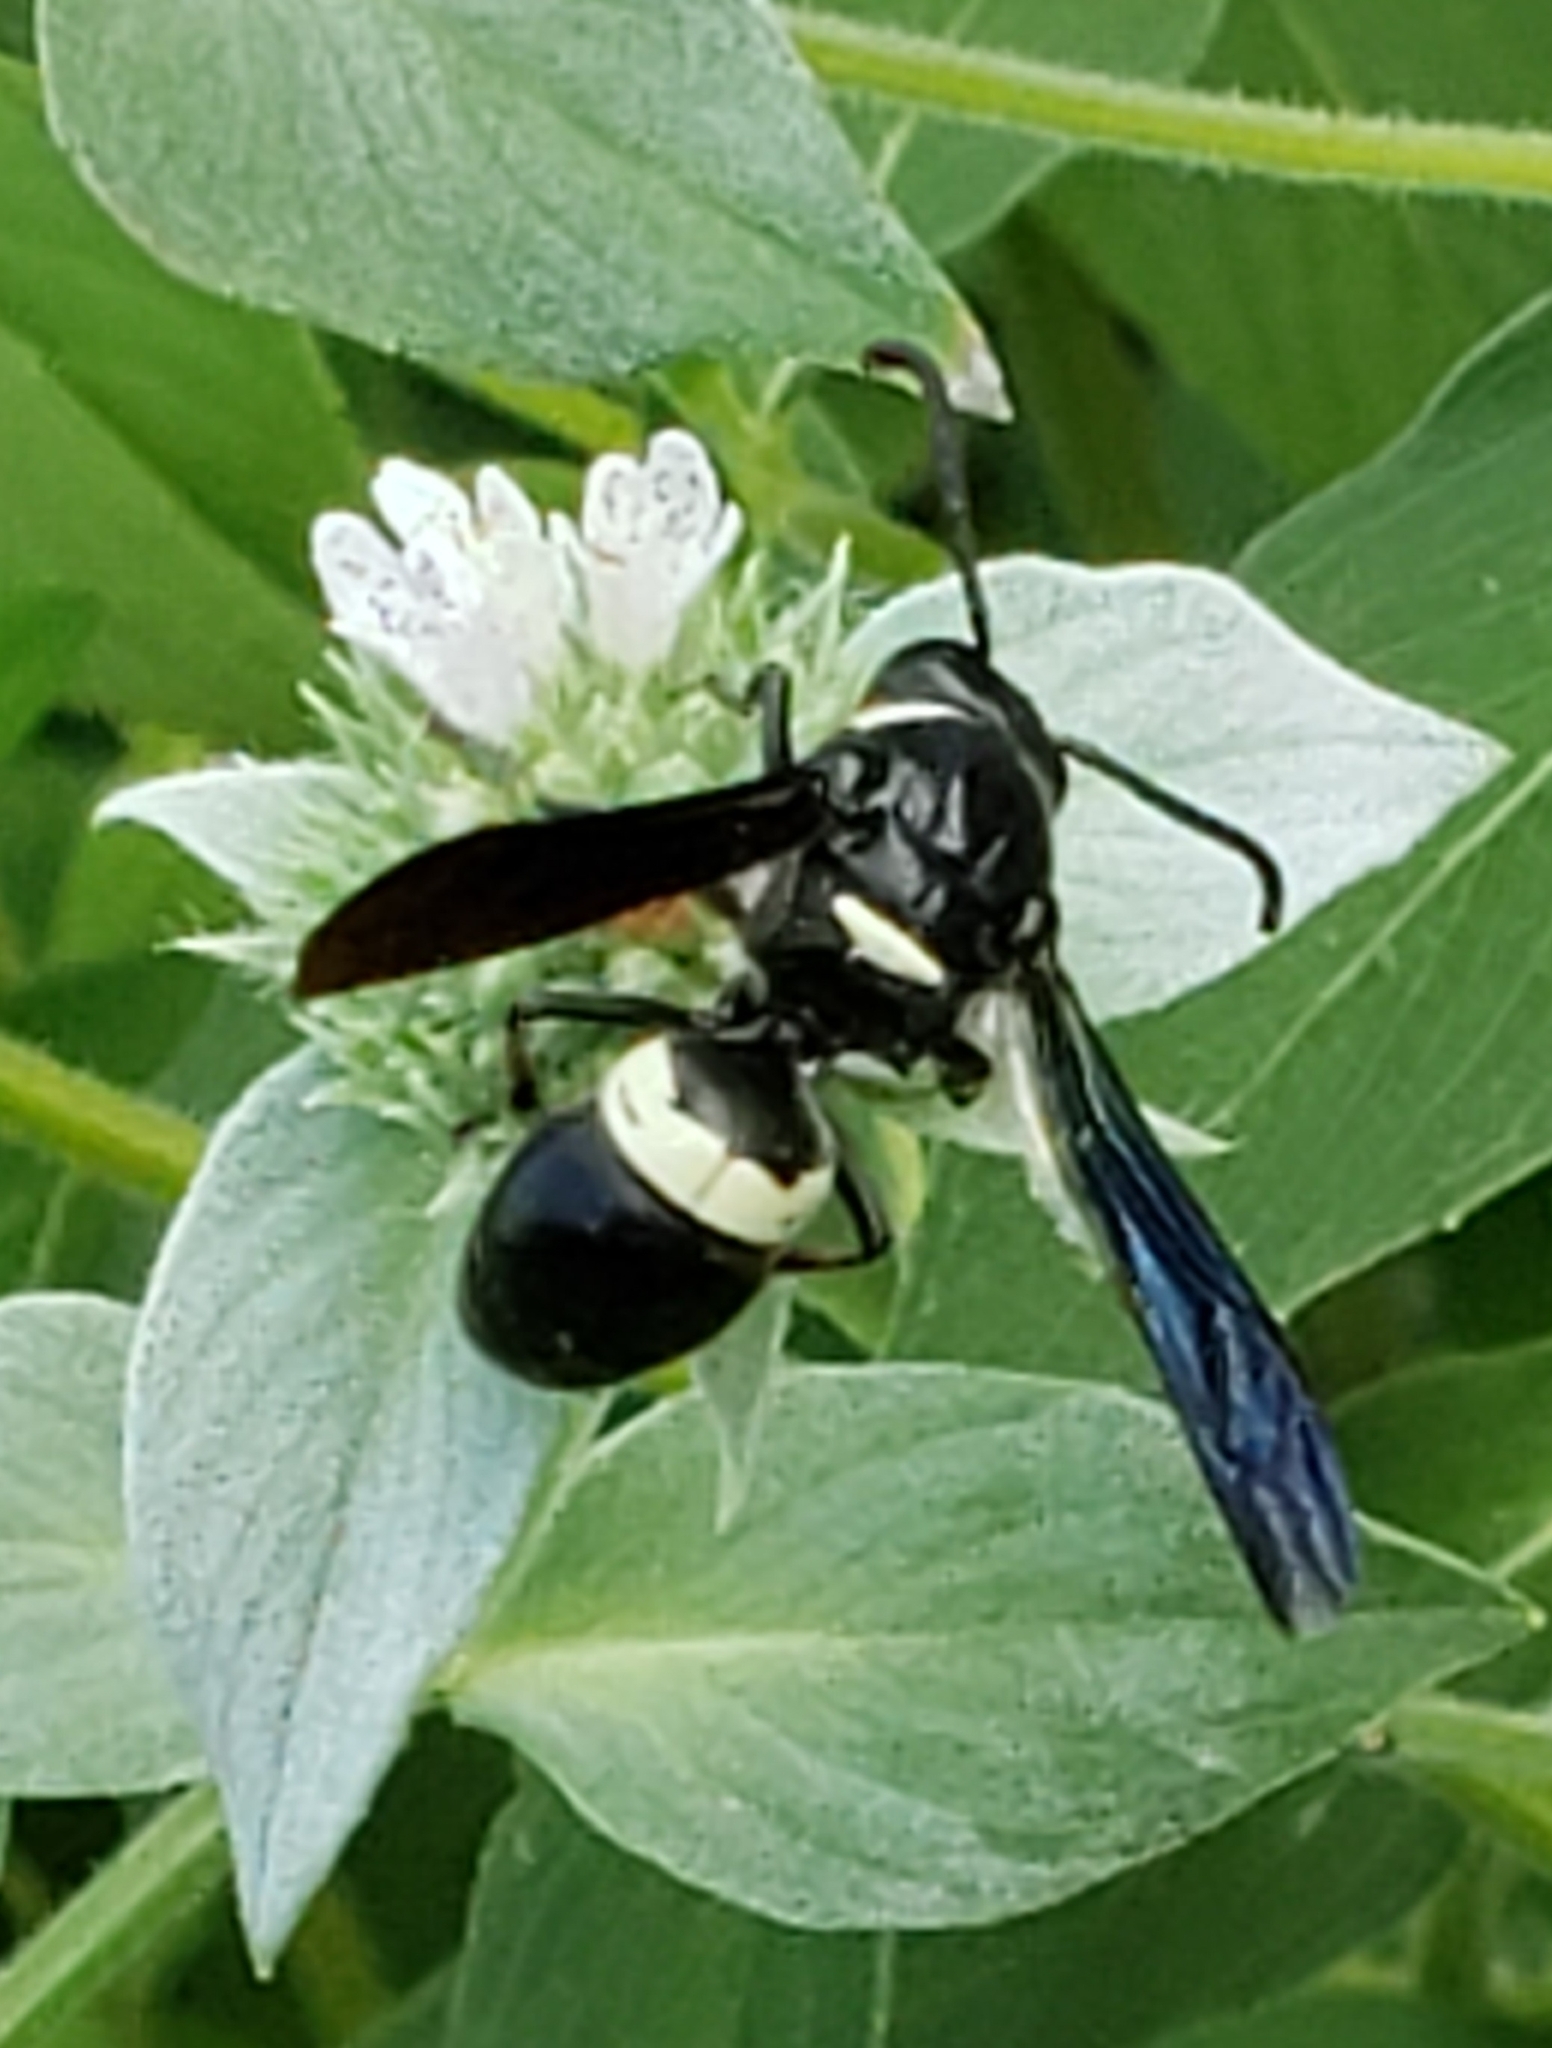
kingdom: Animalia
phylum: Arthropoda
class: Insecta
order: Hymenoptera
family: Eumenidae
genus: Monobia
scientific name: Monobia quadridens
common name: Four-toothed mason wasp
